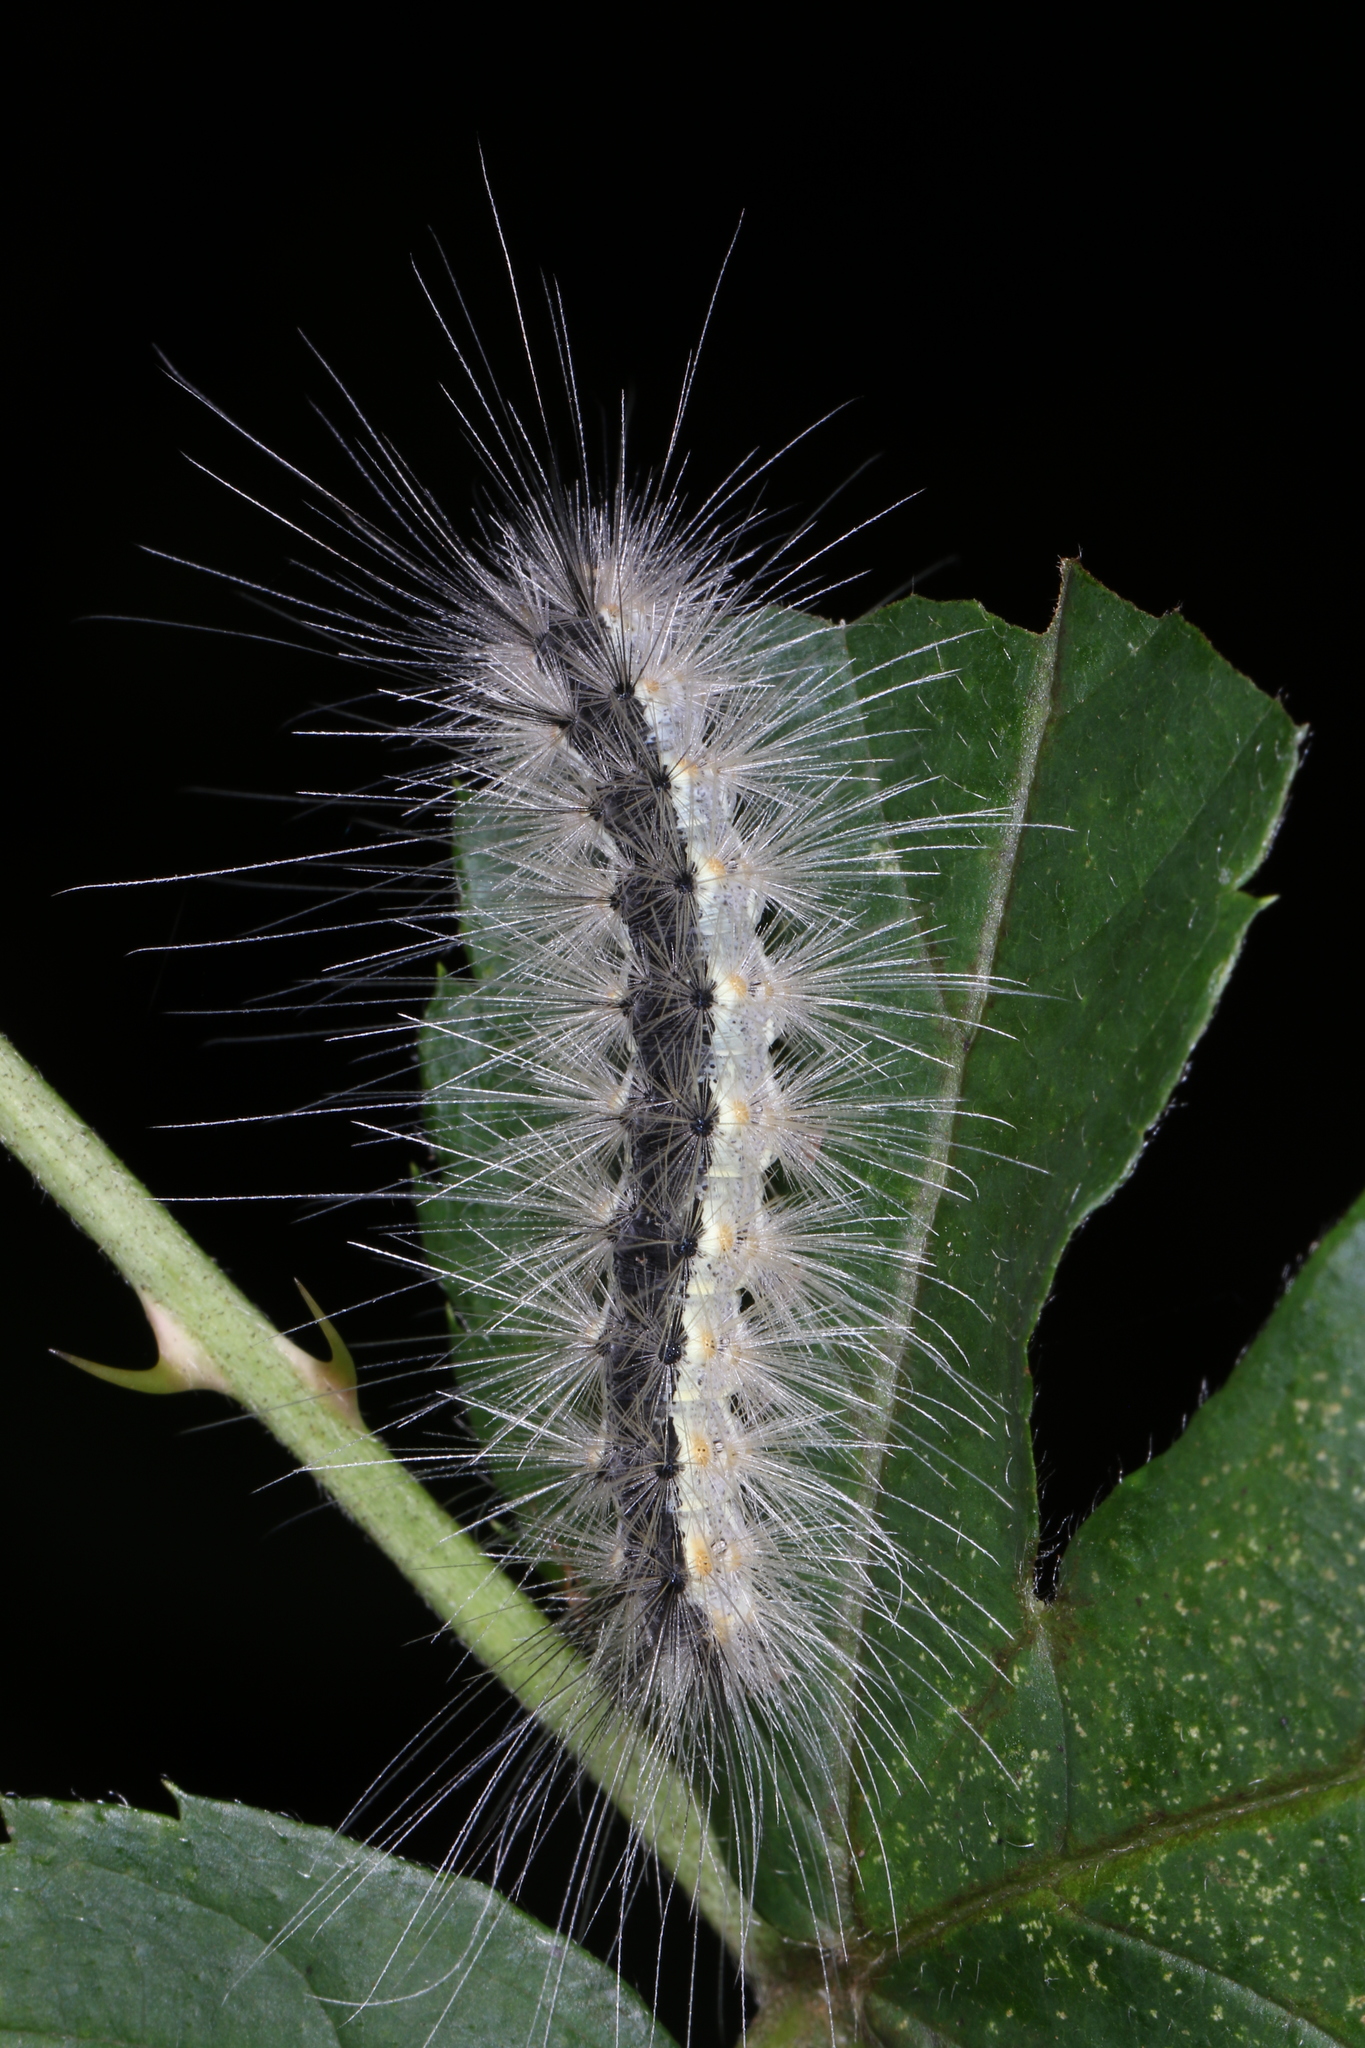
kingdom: Animalia
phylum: Arthropoda
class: Insecta
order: Lepidoptera
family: Erebidae
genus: Hyphantria
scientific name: Hyphantria cunea
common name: American white moth
